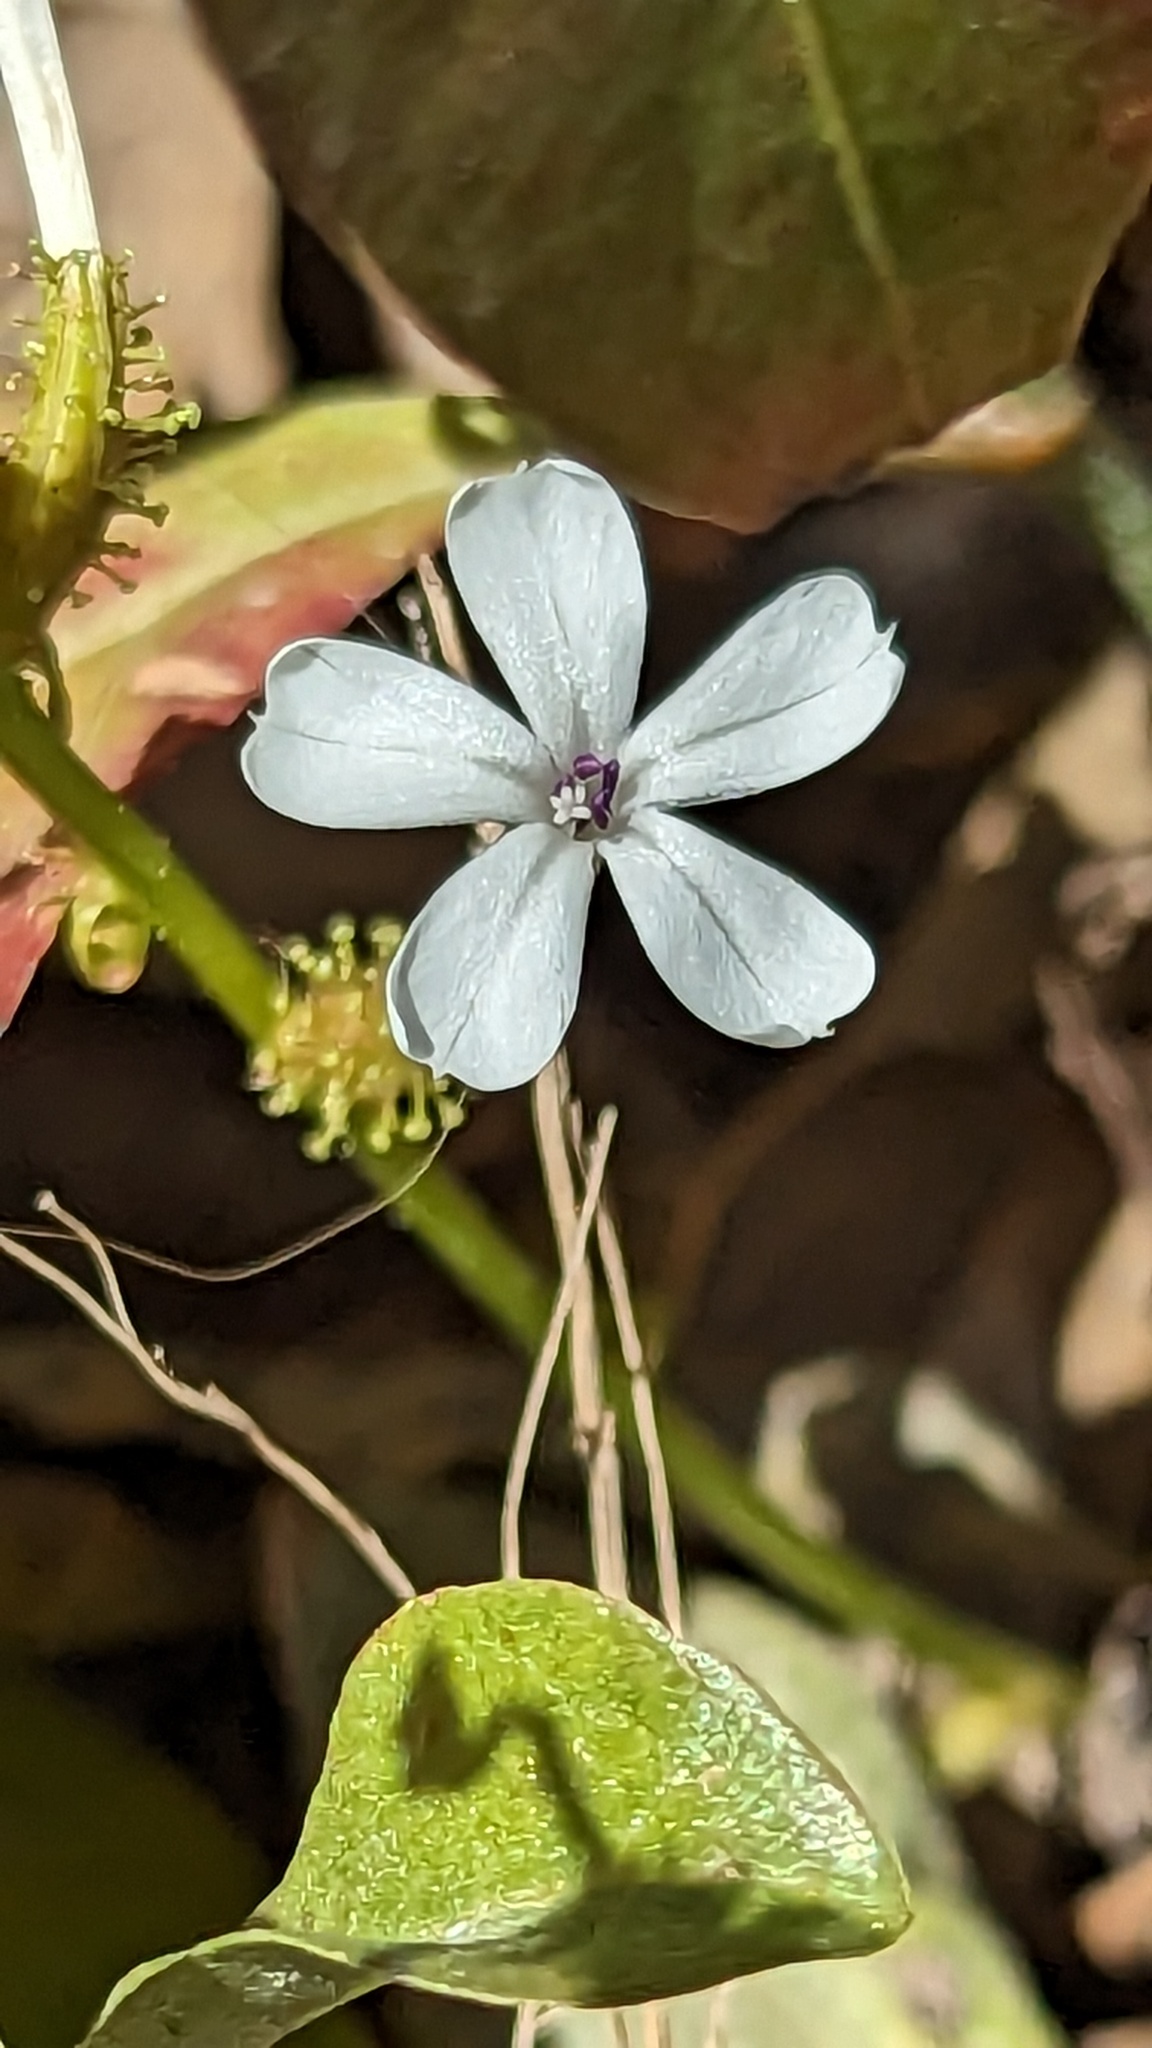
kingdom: Plantae
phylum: Tracheophyta
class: Magnoliopsida
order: Caryophyllales
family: Plumbaginaceae
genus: Plumbago
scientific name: Plumbago zeylanica
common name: Doctorbush
